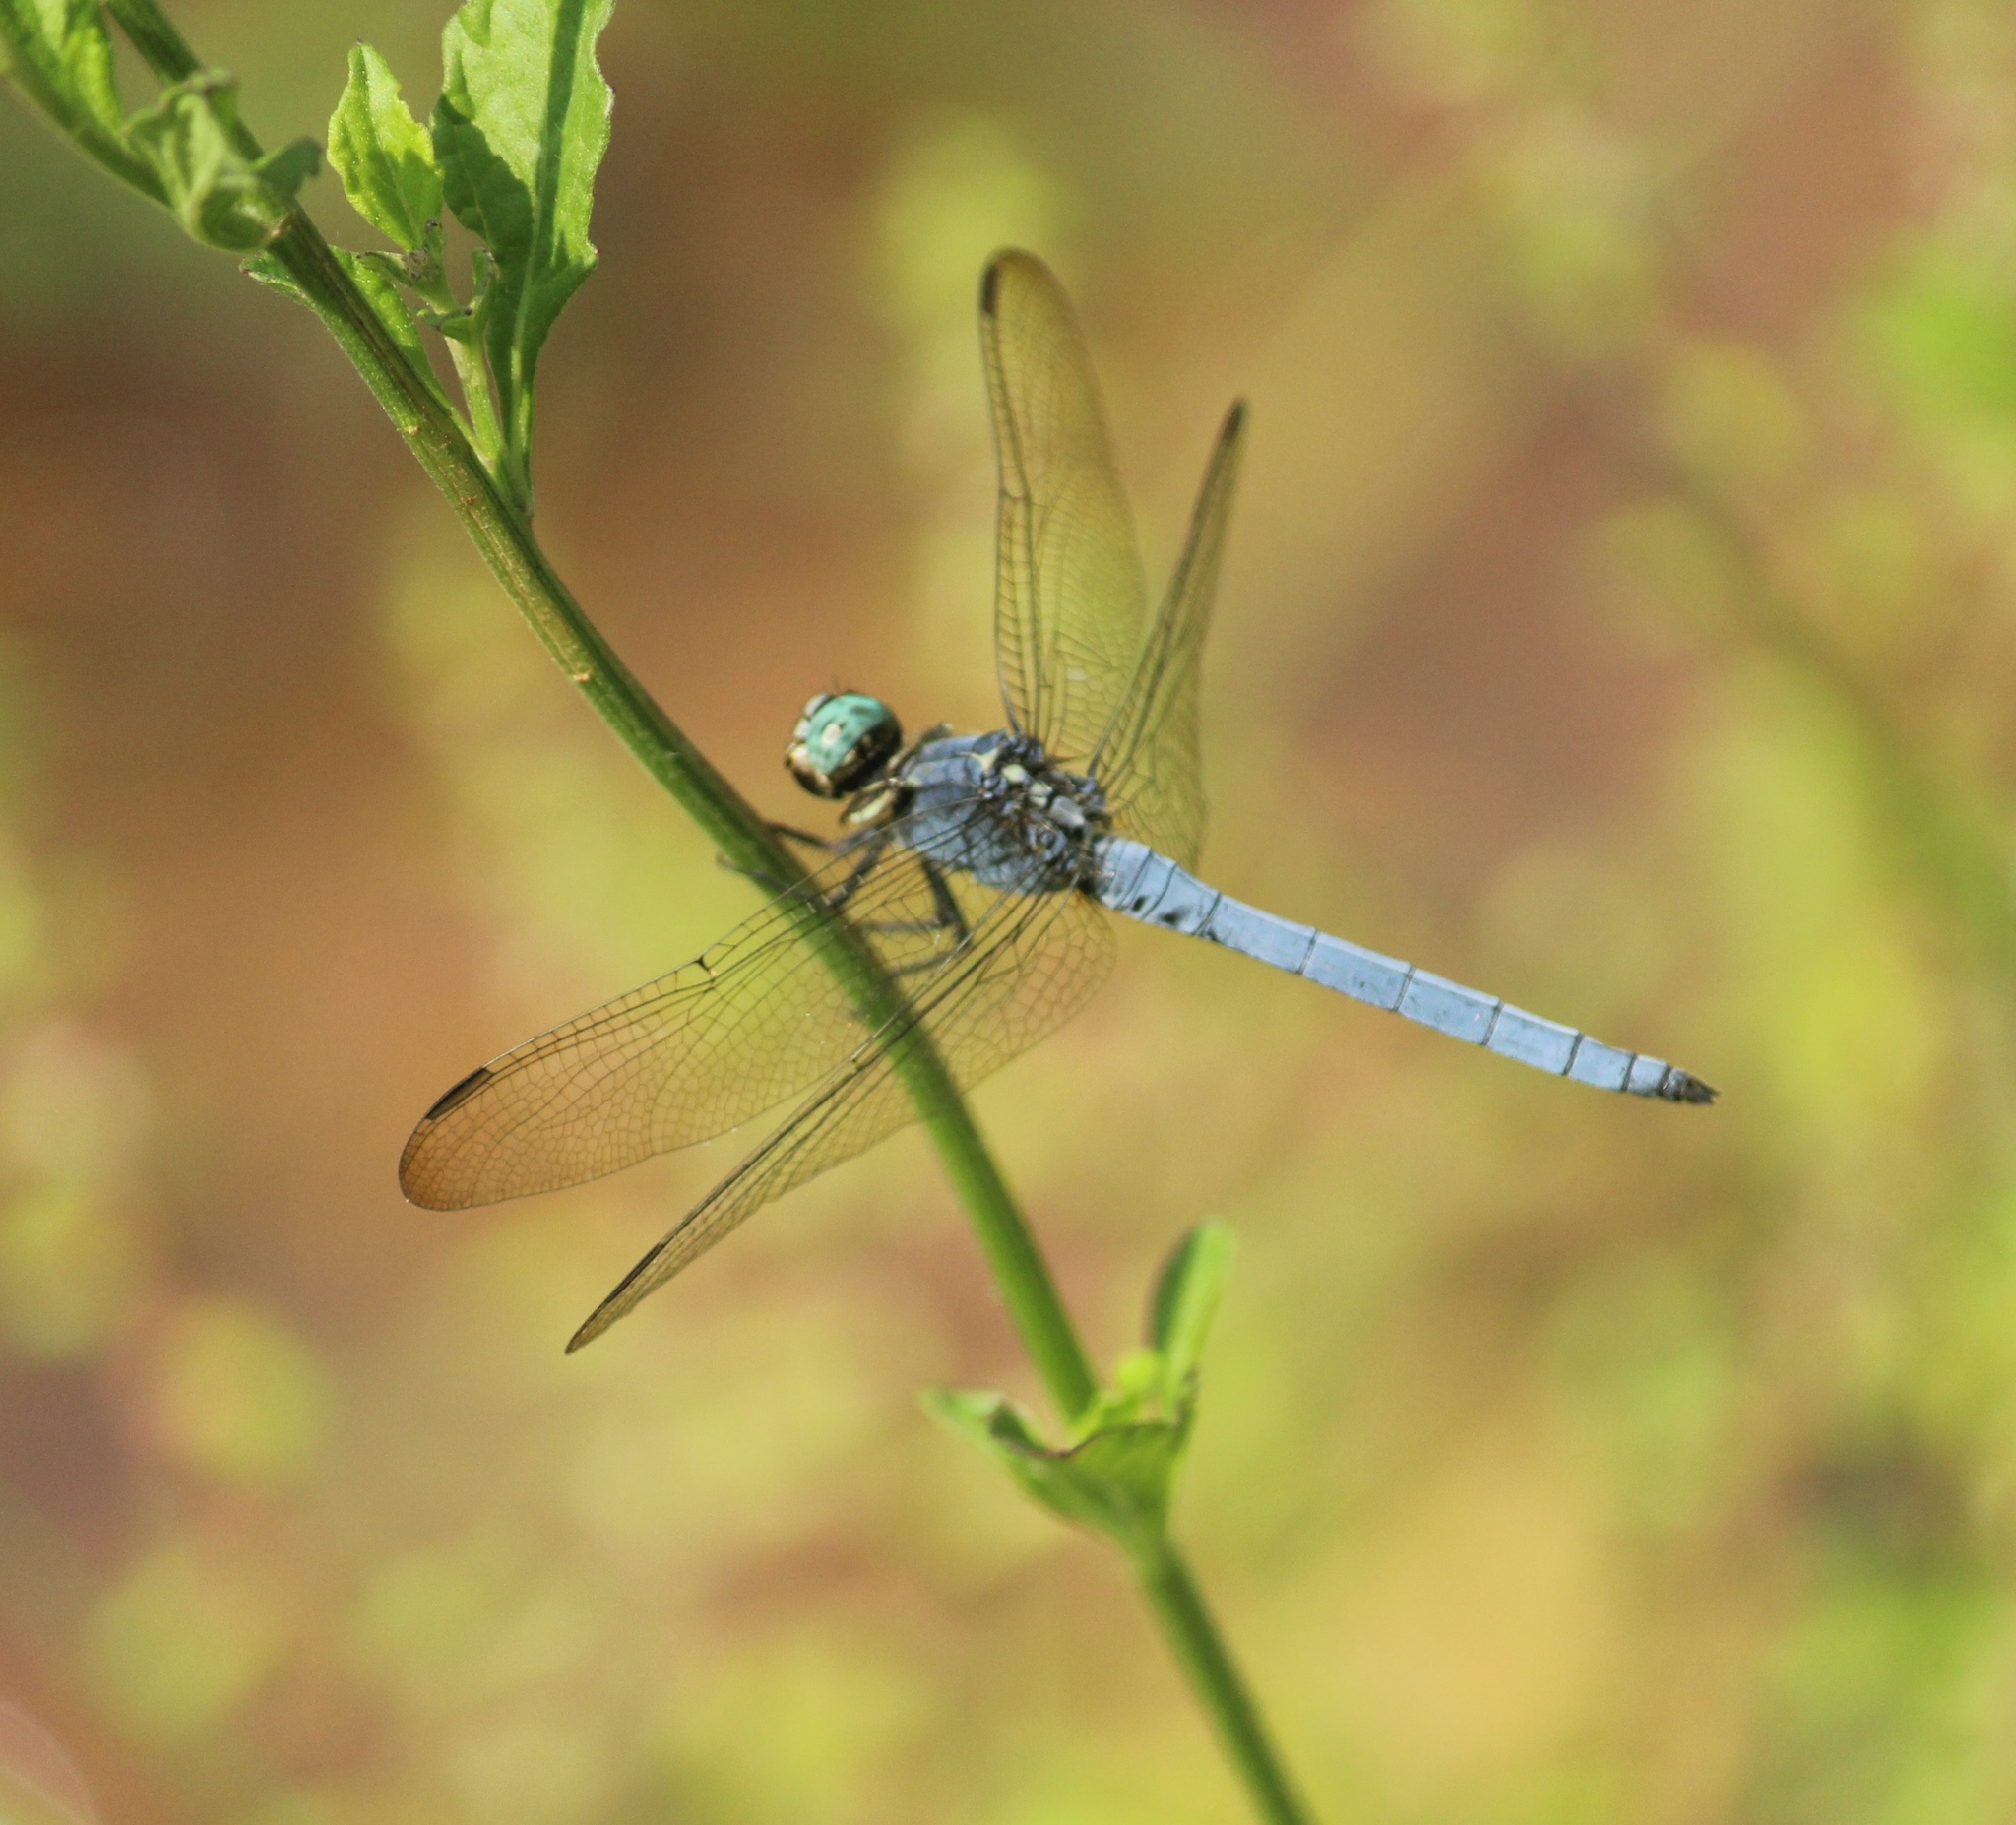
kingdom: Animalia
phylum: Arthropoda
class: Insecta
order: Odonata
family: Libellulidae
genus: Orthetrum
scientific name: Orthetrum luzonicum
